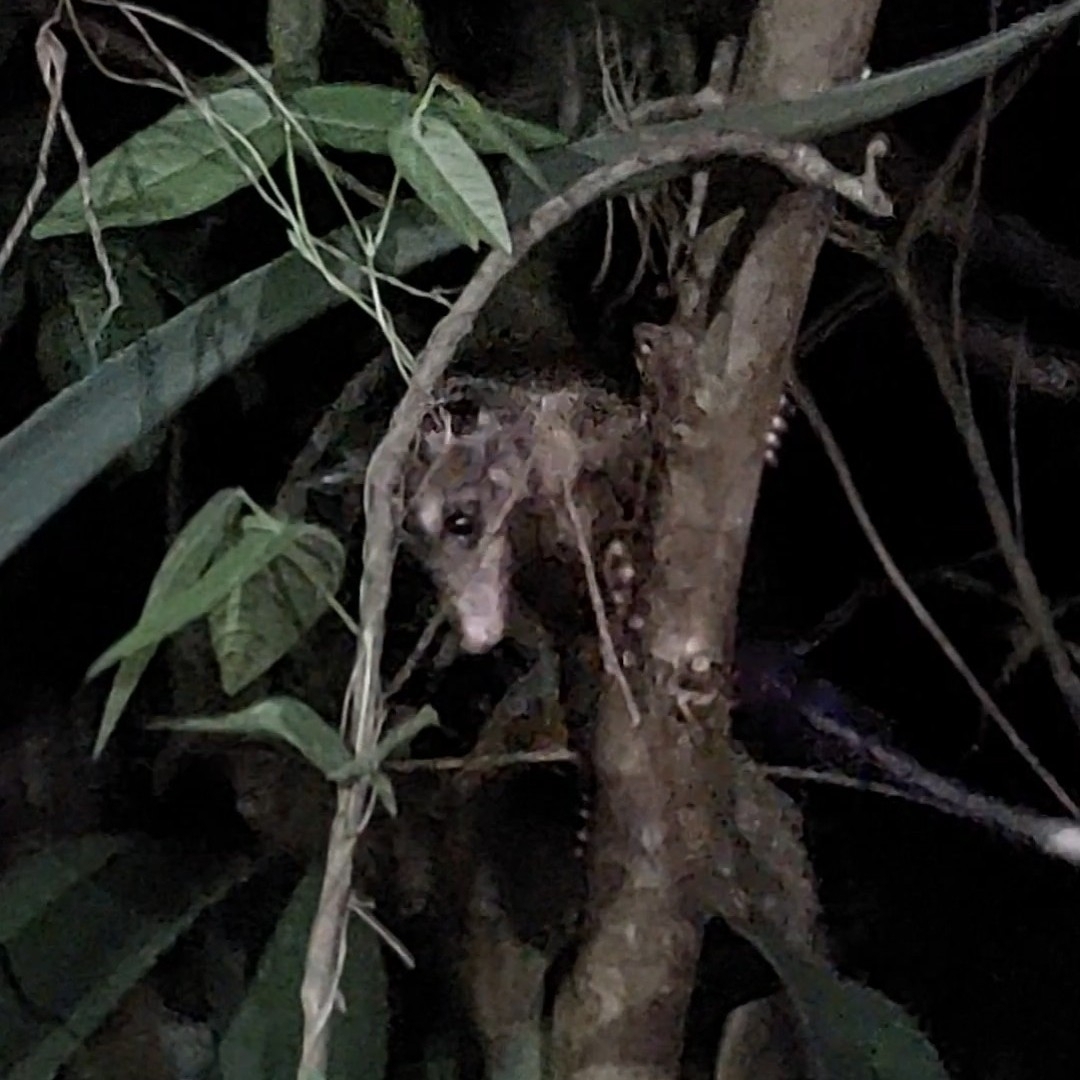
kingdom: Animalia
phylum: Chordata
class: Mammalia
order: Didelphimorphia
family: Didelphidae
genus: Didelphis
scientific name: Didelphis aurita
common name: Big-eared opossum
